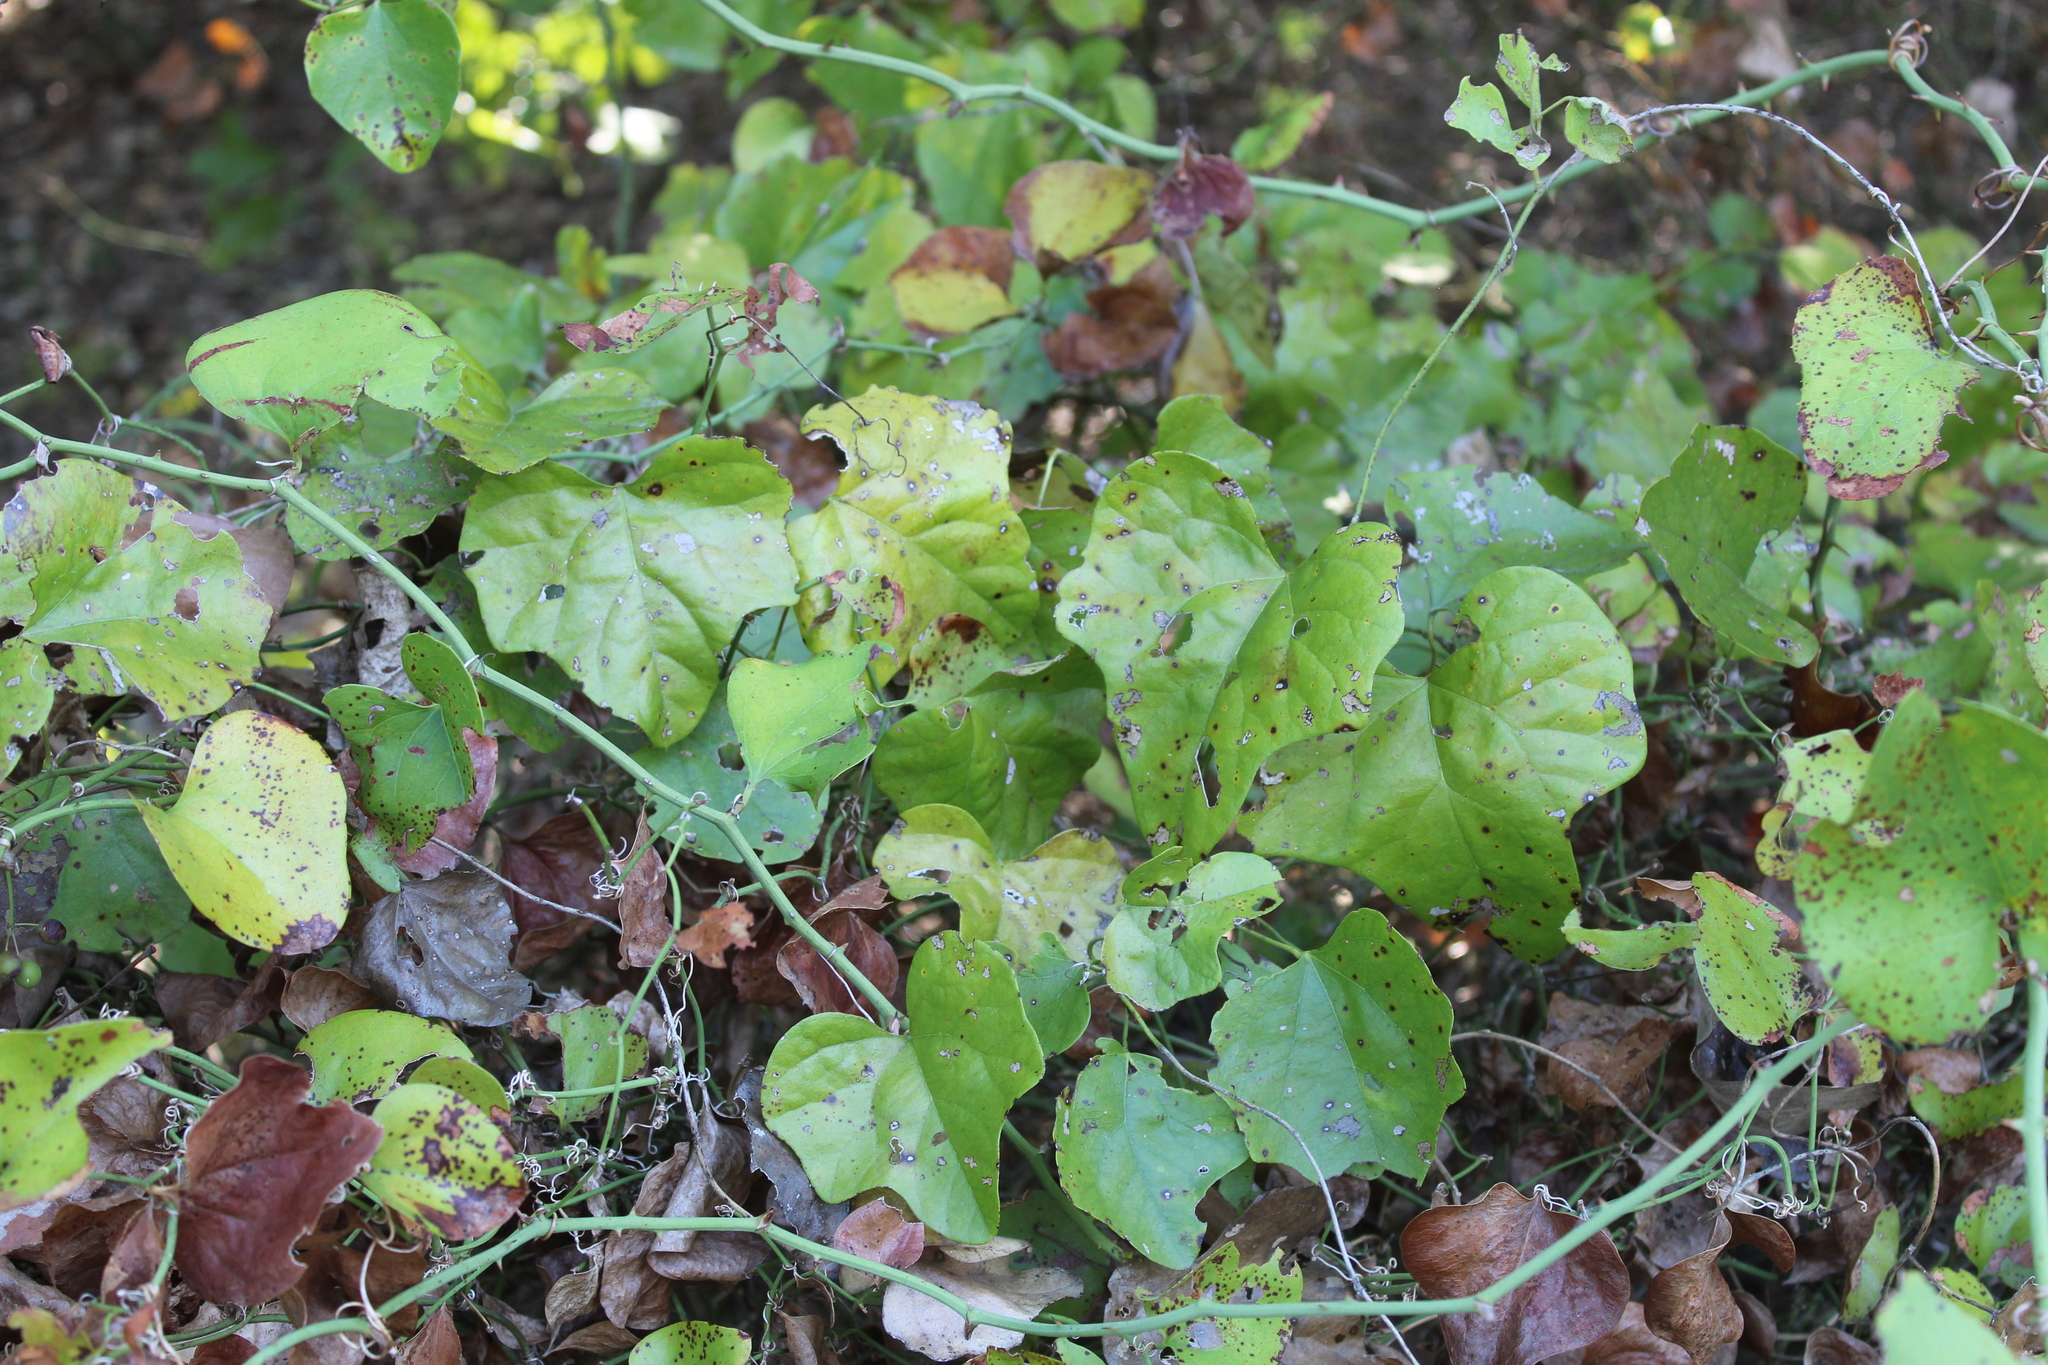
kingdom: Plantae
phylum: Tracheophyta
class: Magnoliopsida
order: Ranunculales
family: Menispermaceae
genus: Cocculus
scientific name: Cocculus carolinus
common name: Carolina moonseed
